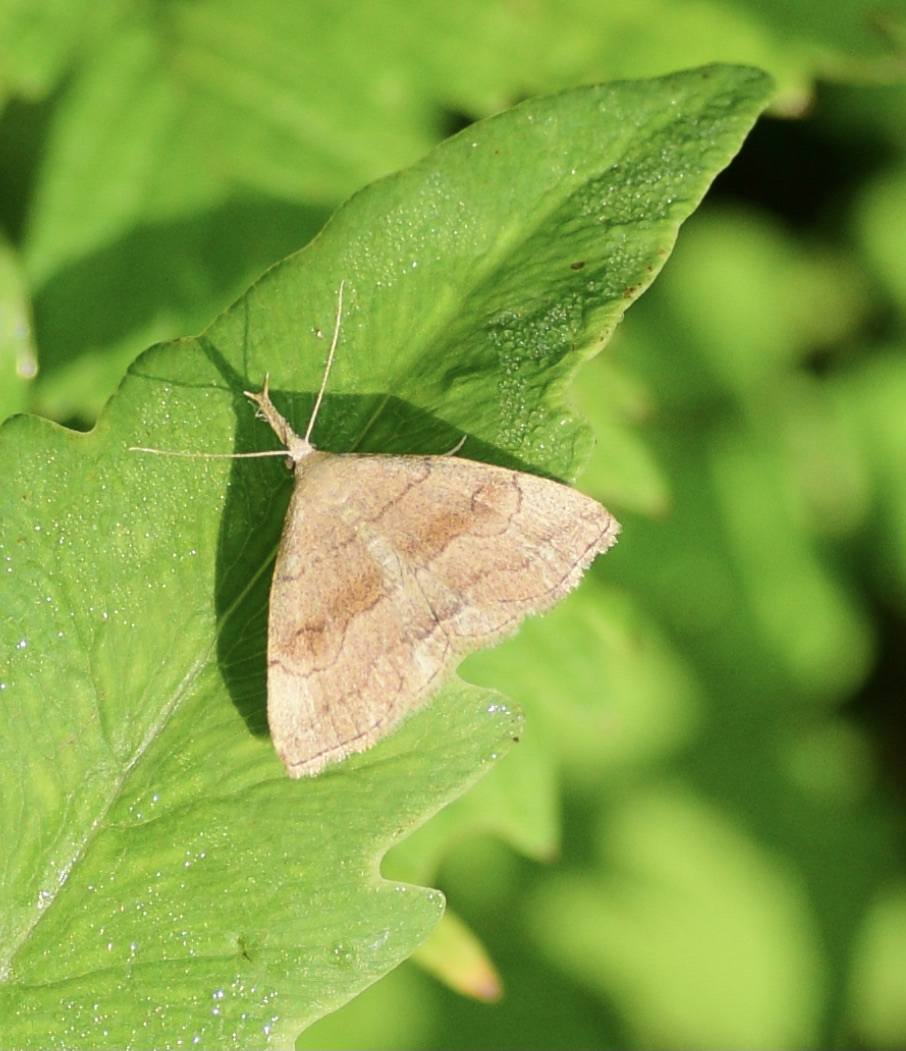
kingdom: Animalia
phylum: Arthropoda
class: Insecta
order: Lepidoptera
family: Erebidae
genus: Phalaenostola
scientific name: Phalaenostola metonalis
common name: Pale phalaenostola moth
